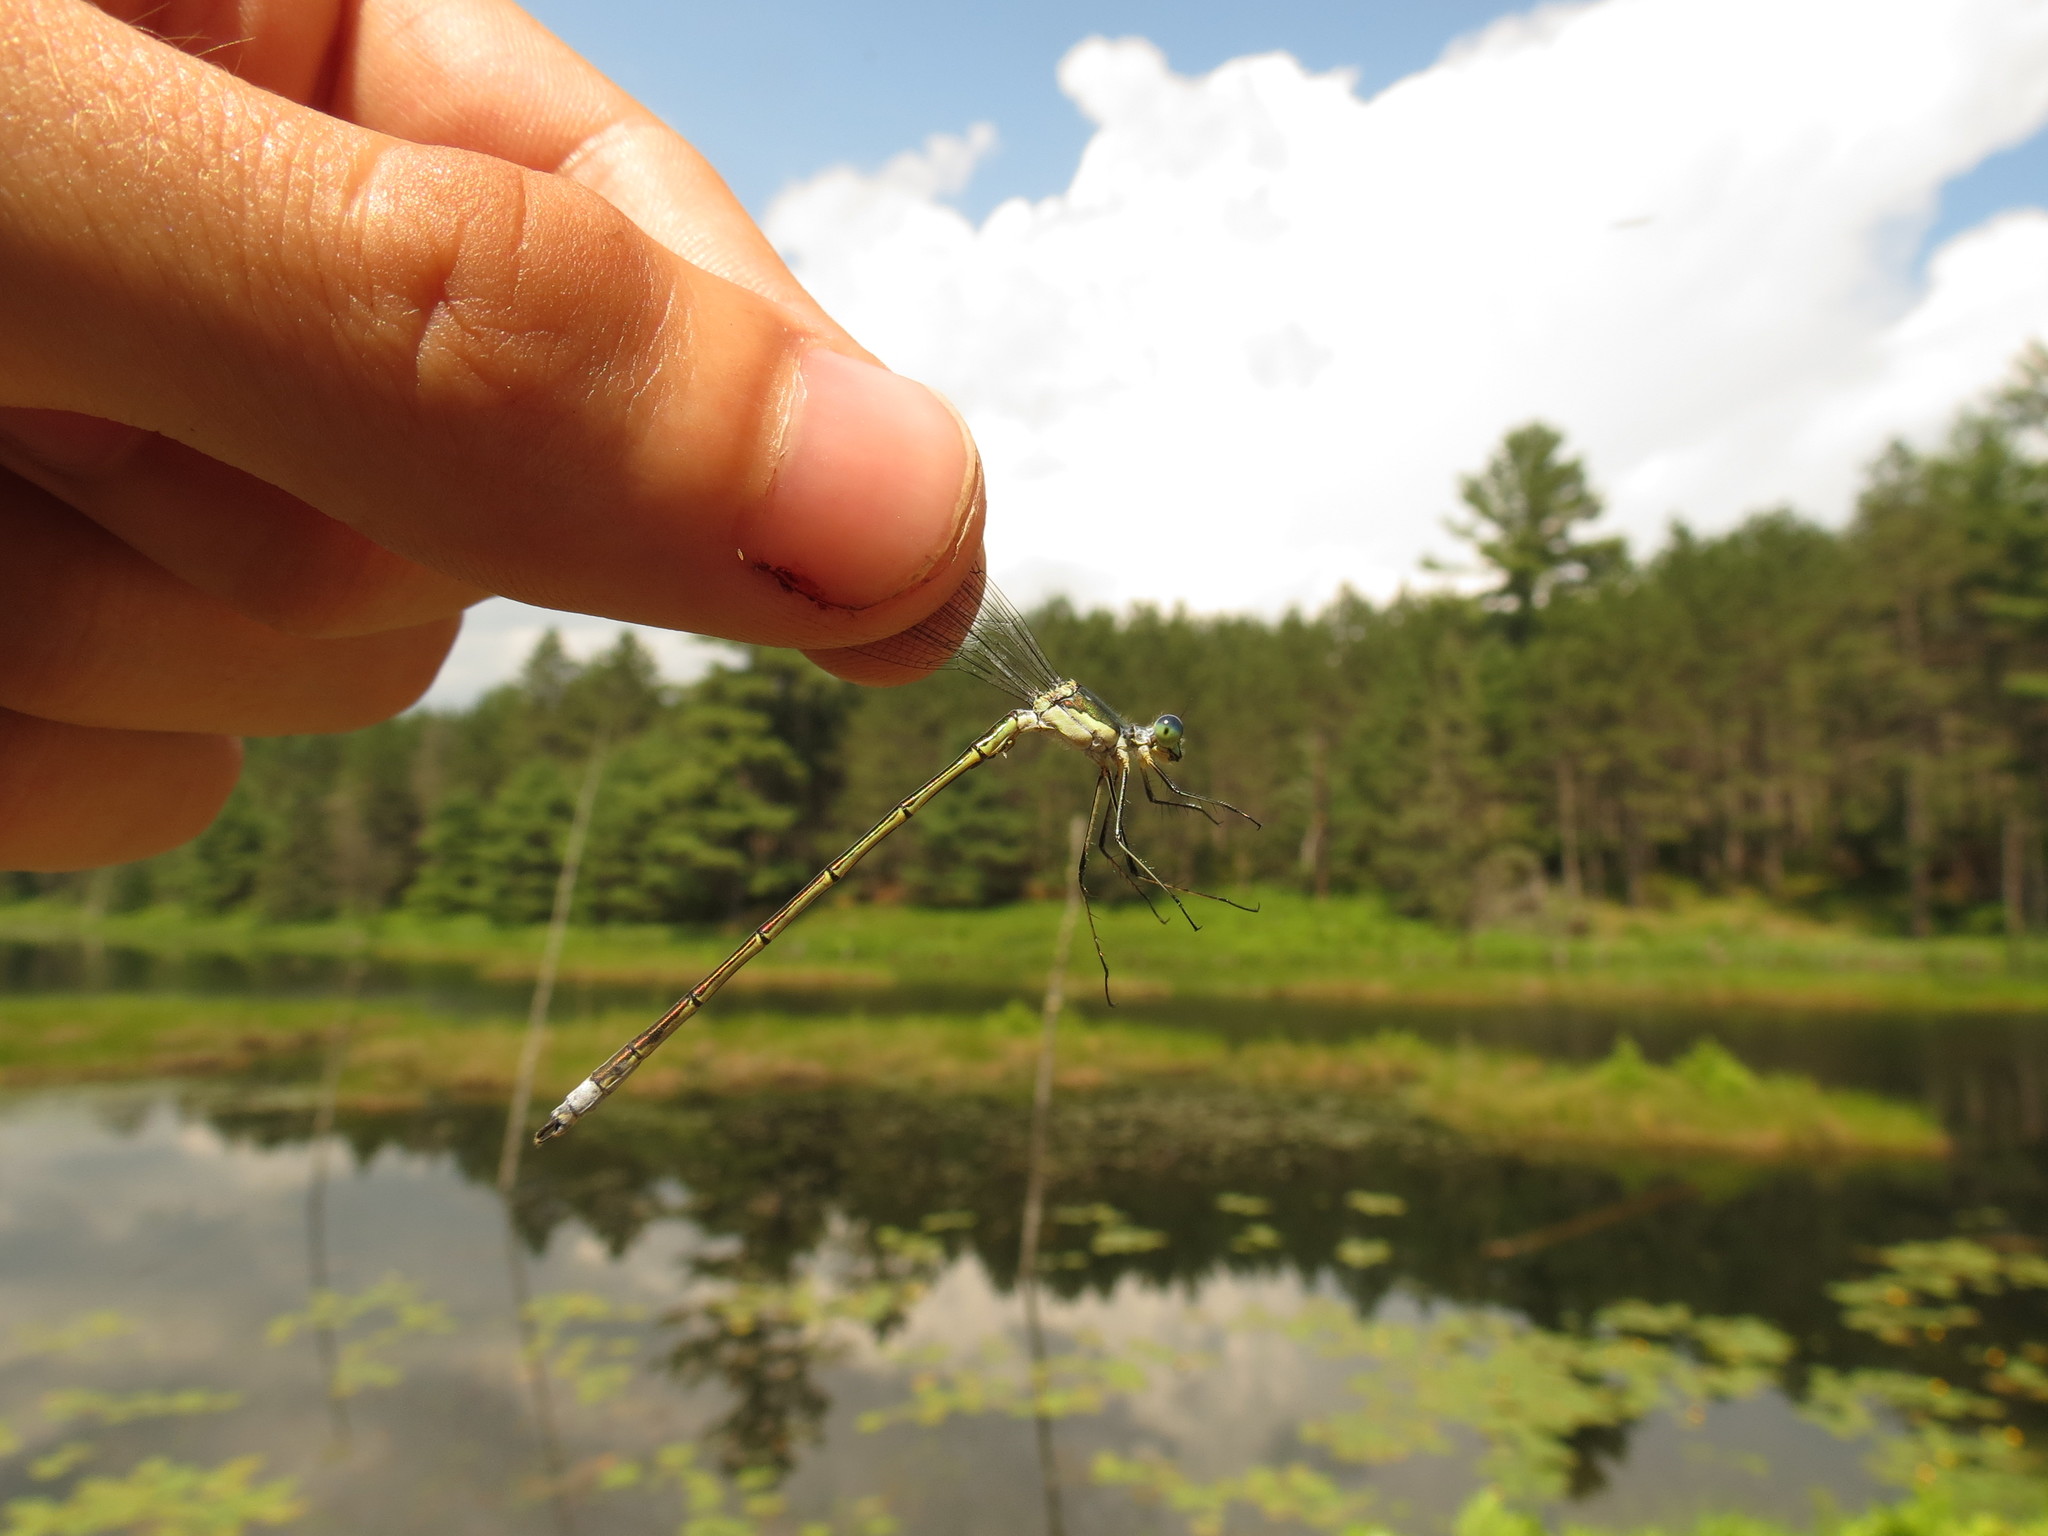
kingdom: Animalia
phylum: Arthropoda
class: Insecta
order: Odonata
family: Lestidae
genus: Lestes
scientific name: Lestes inaequalis
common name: Elegant spreadwing
